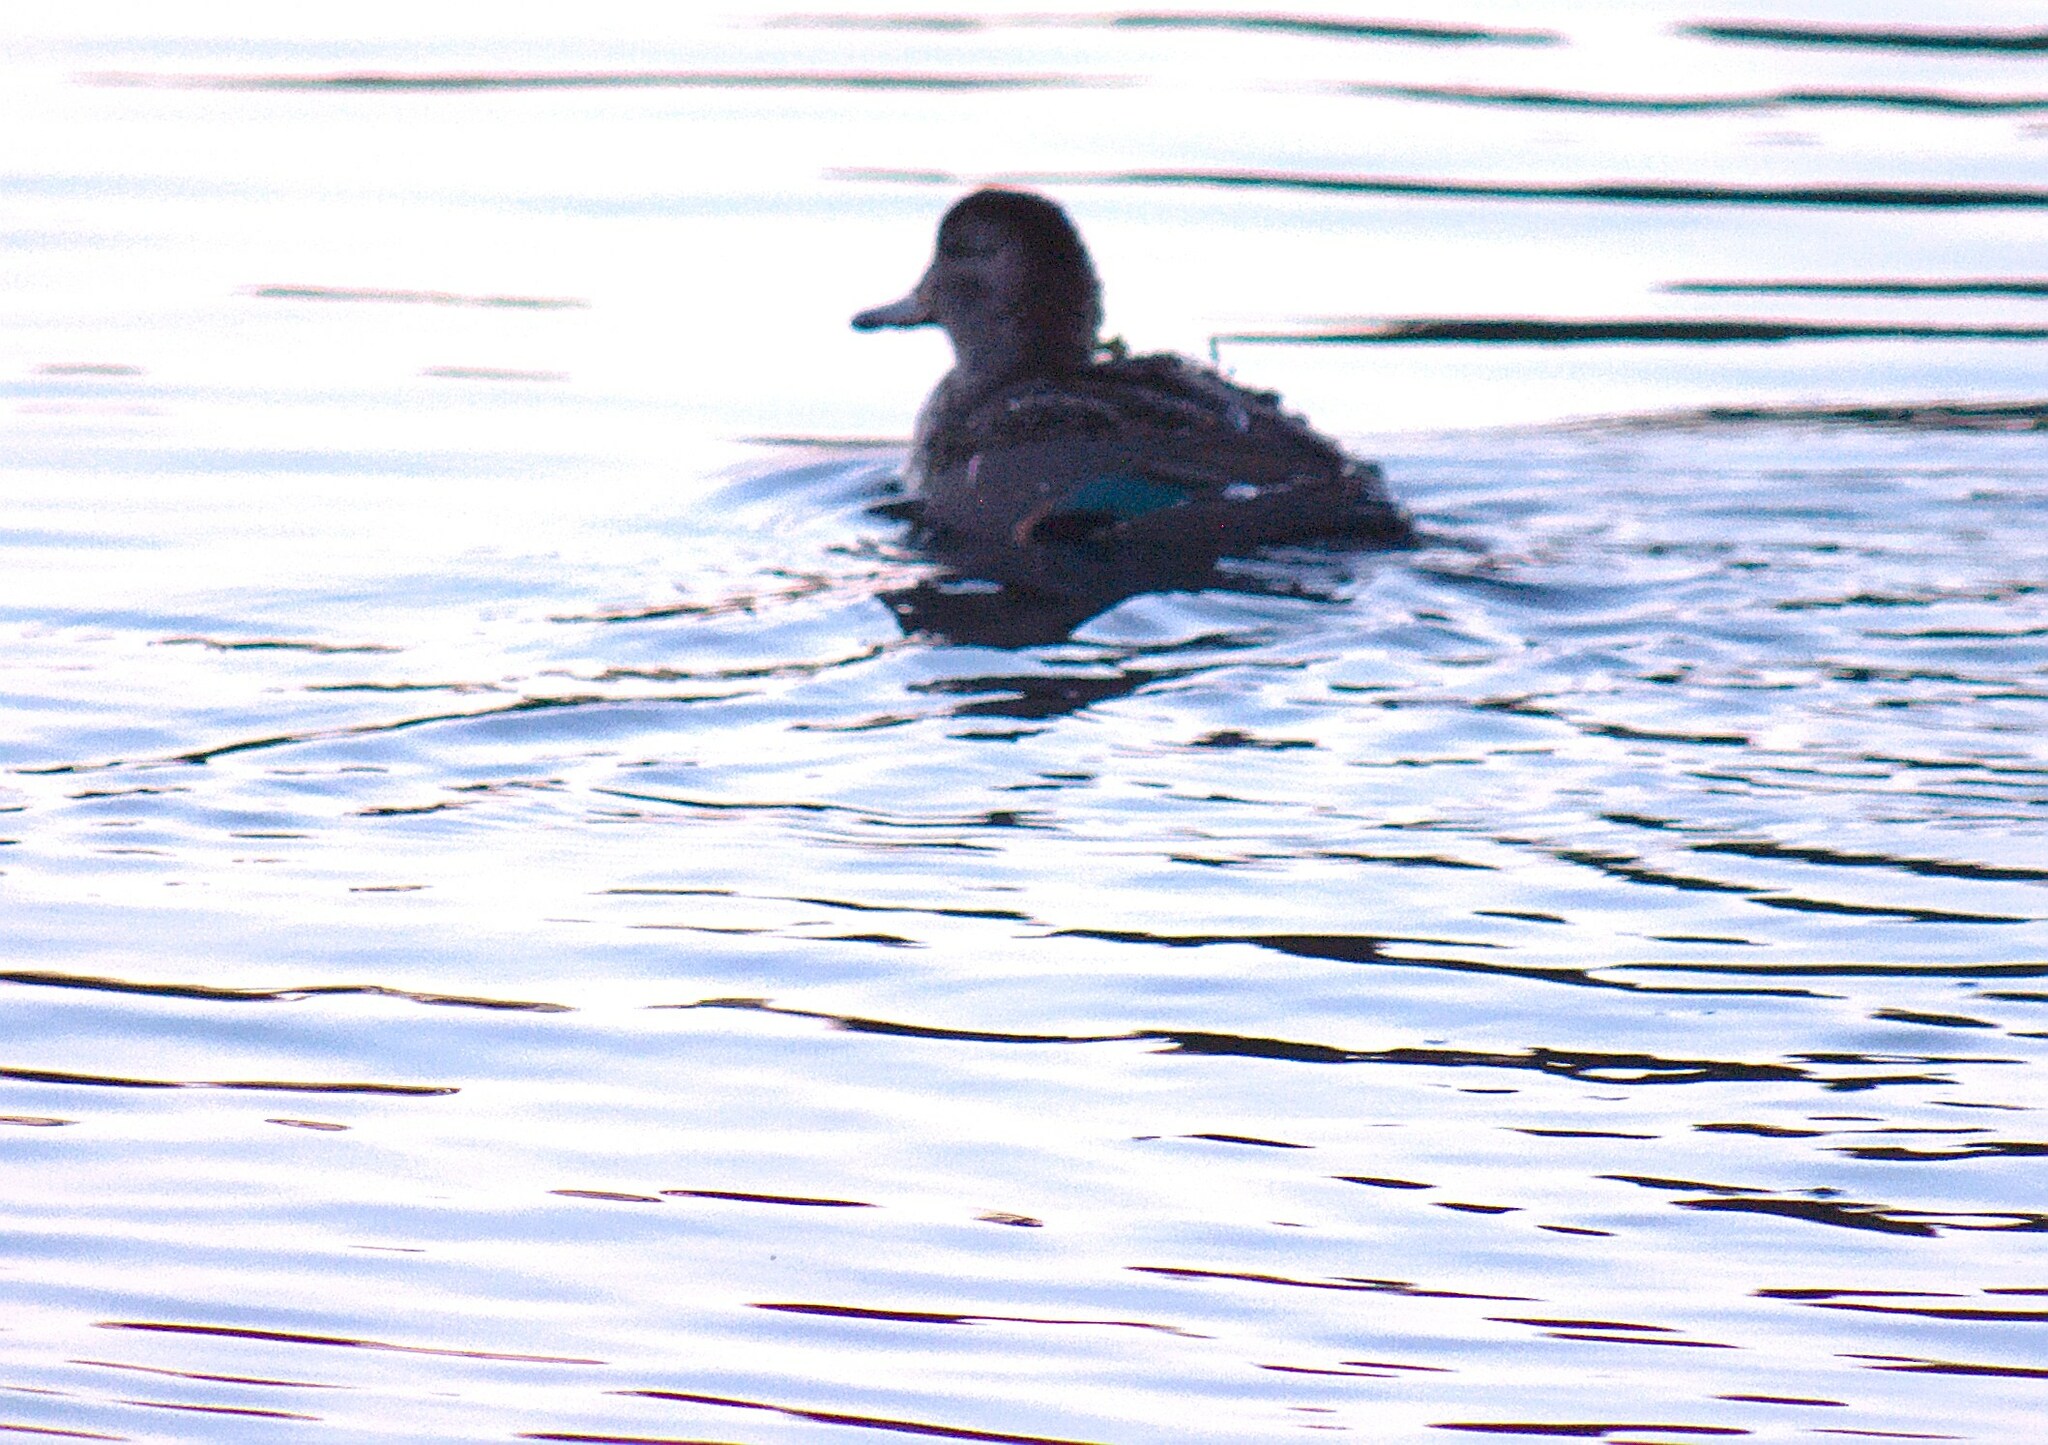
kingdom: Animalia
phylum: Chordata
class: Aves
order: Anseriformes
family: Anatidae
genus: Anas
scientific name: Anas crecca
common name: Eurasian teal
